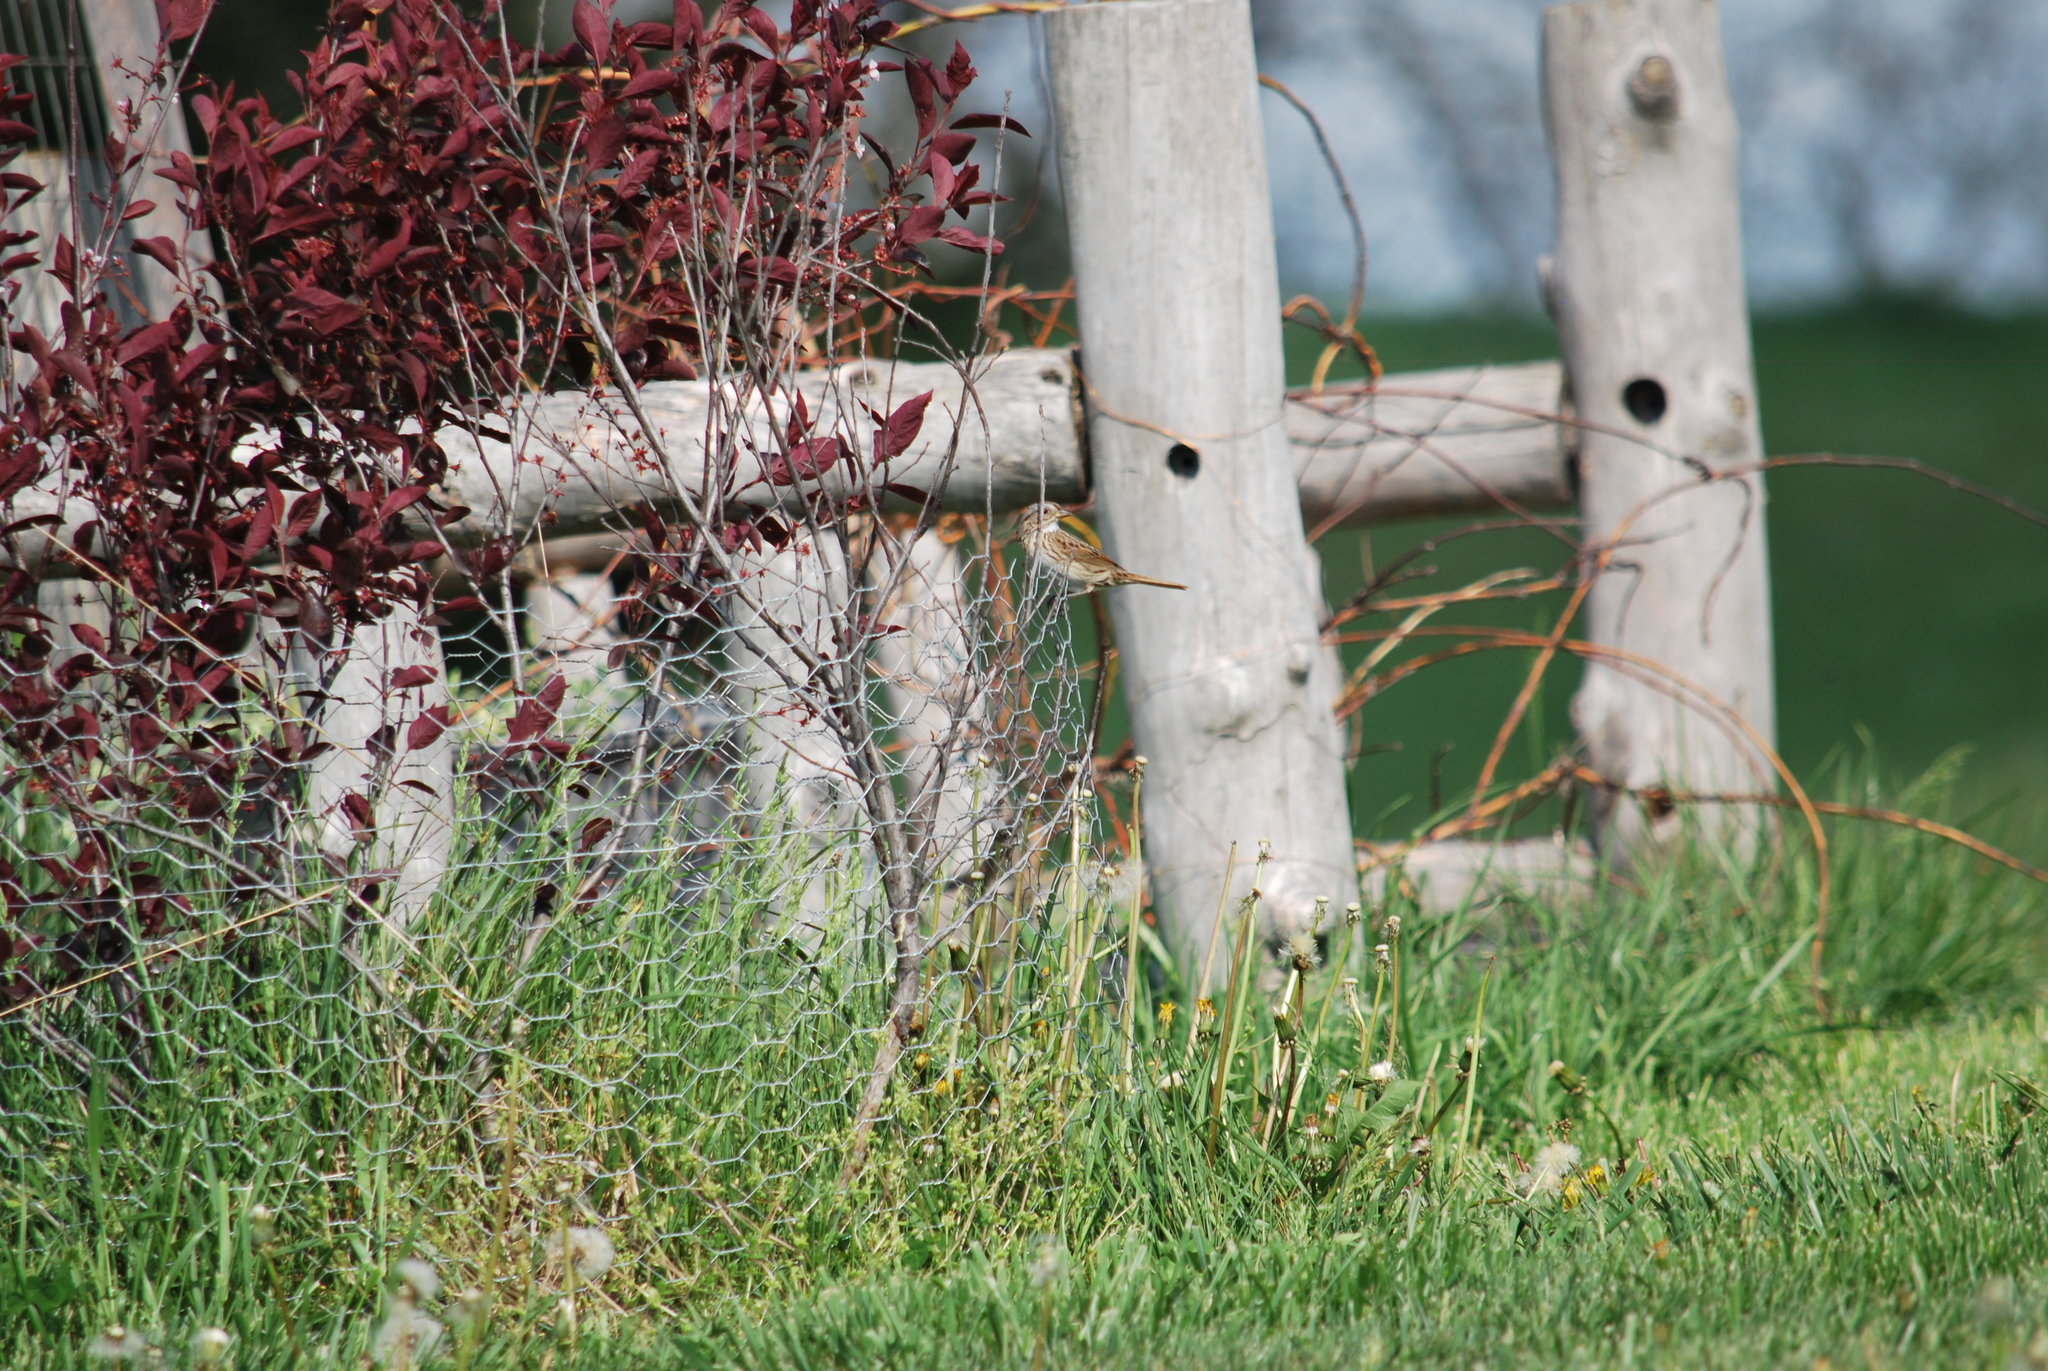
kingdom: Animalia
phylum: Chordata
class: Aves
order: Passeriformes
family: Passerellidae
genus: Melospiza
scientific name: Melospiza lincolnii
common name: Lincoln's sparrow
